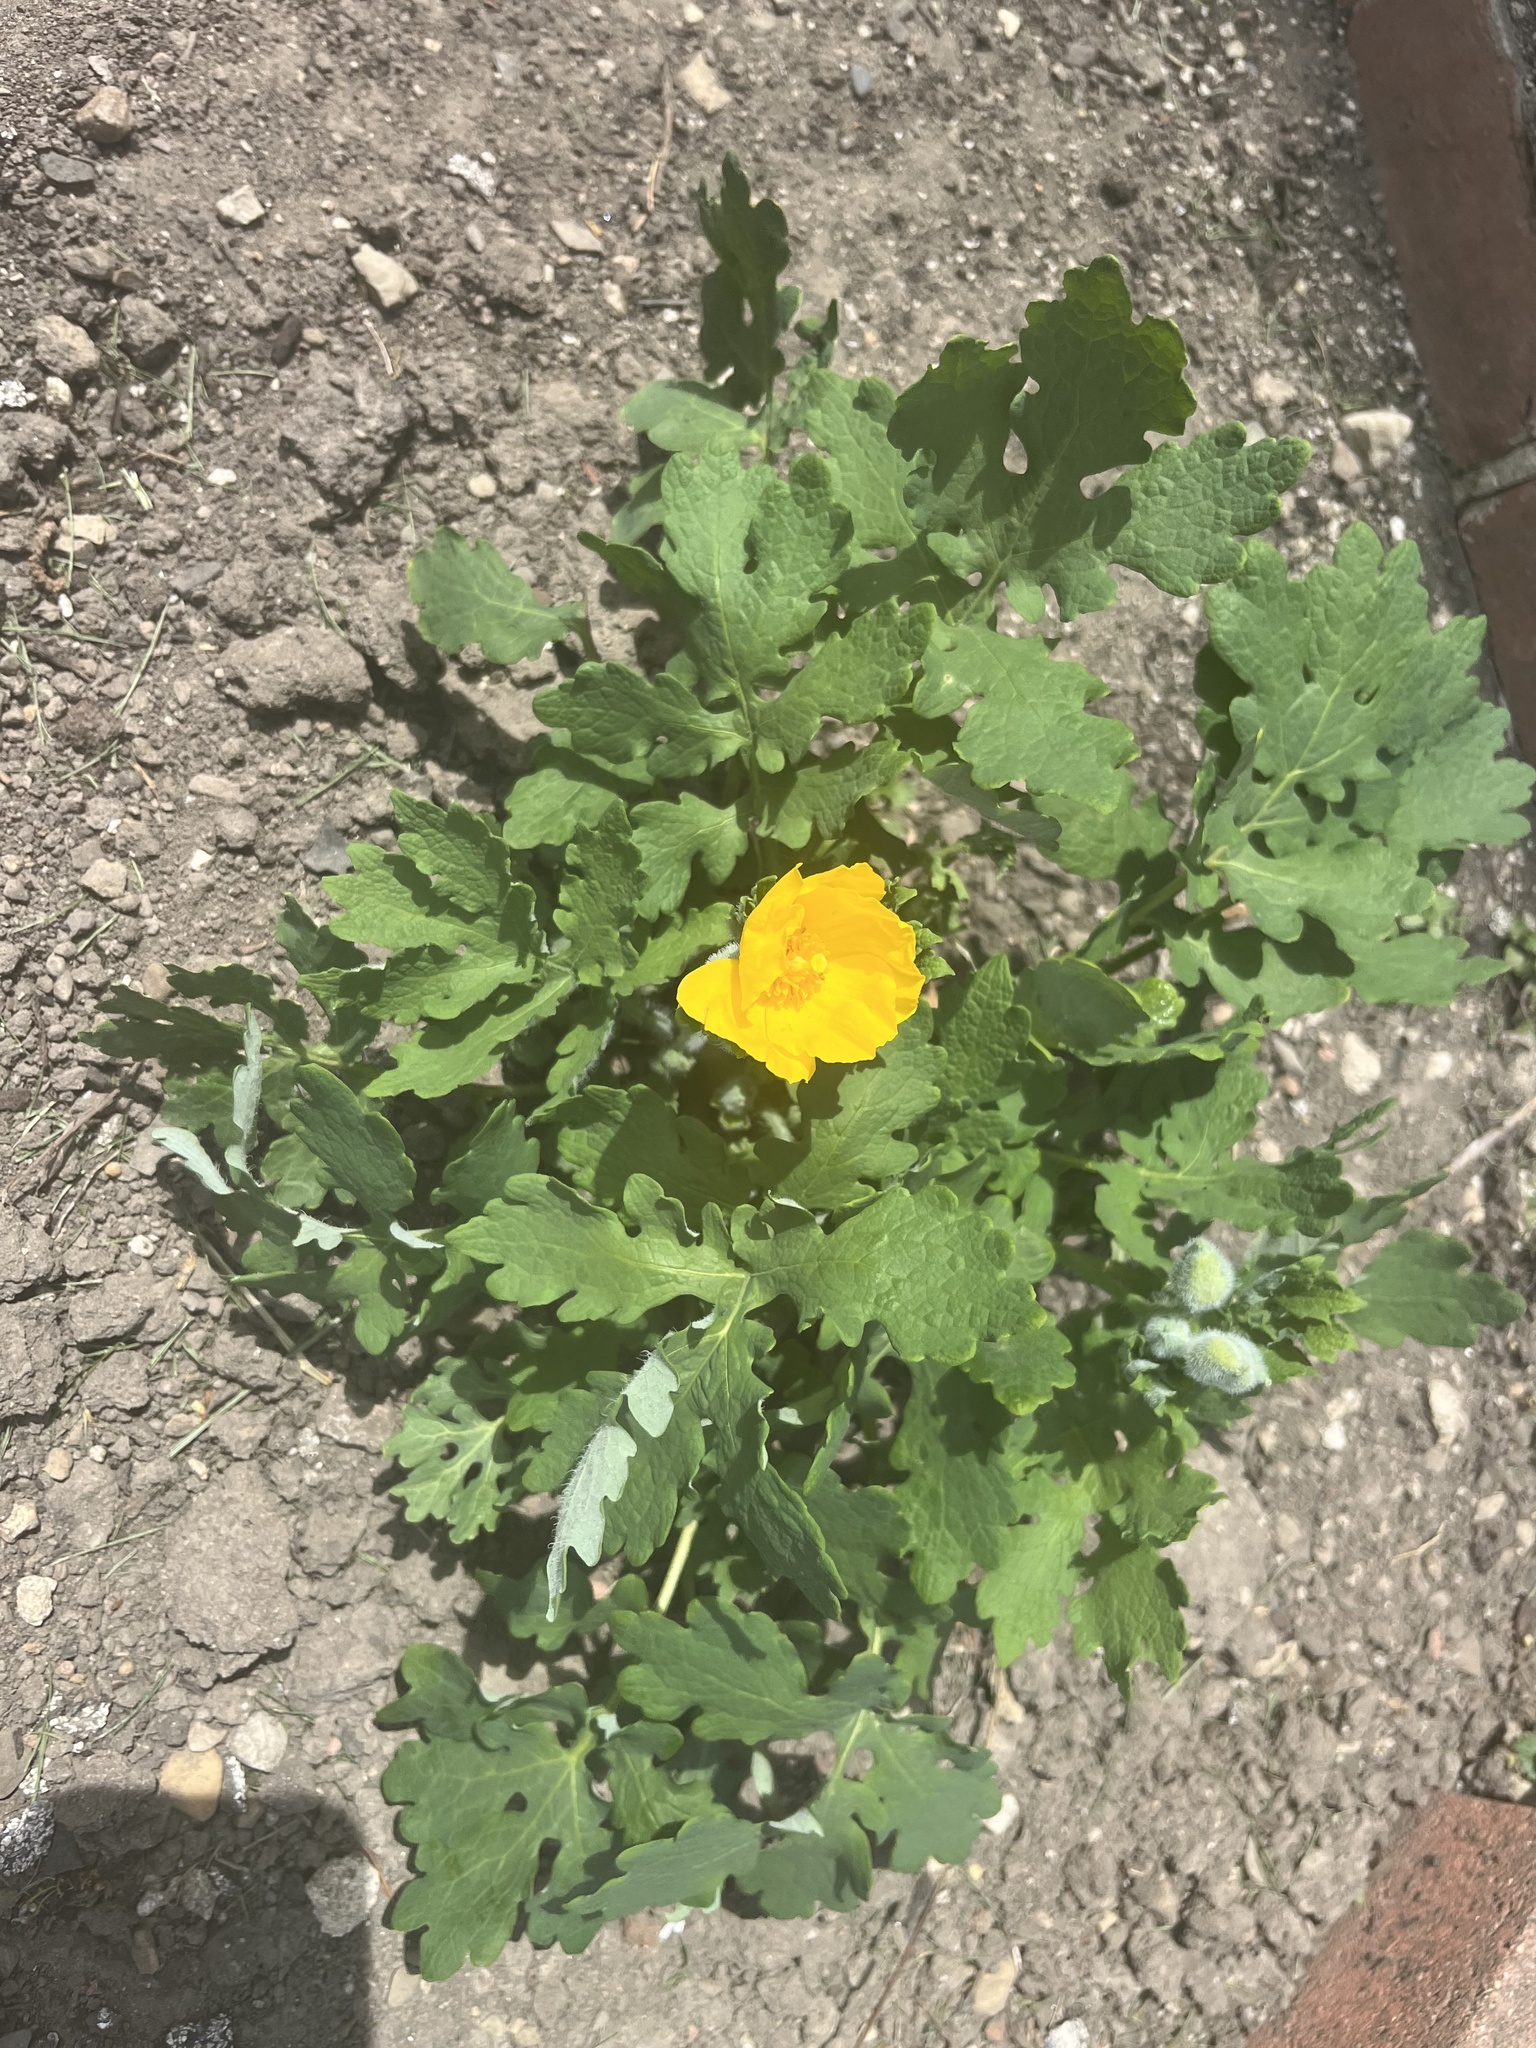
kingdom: Plantae
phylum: Tracheophyta
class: Magnoliopsida
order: Ranunculales
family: Papaveraceae
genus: Stylophorum
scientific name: Stylophorum diphyllum
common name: Celandine poppy
